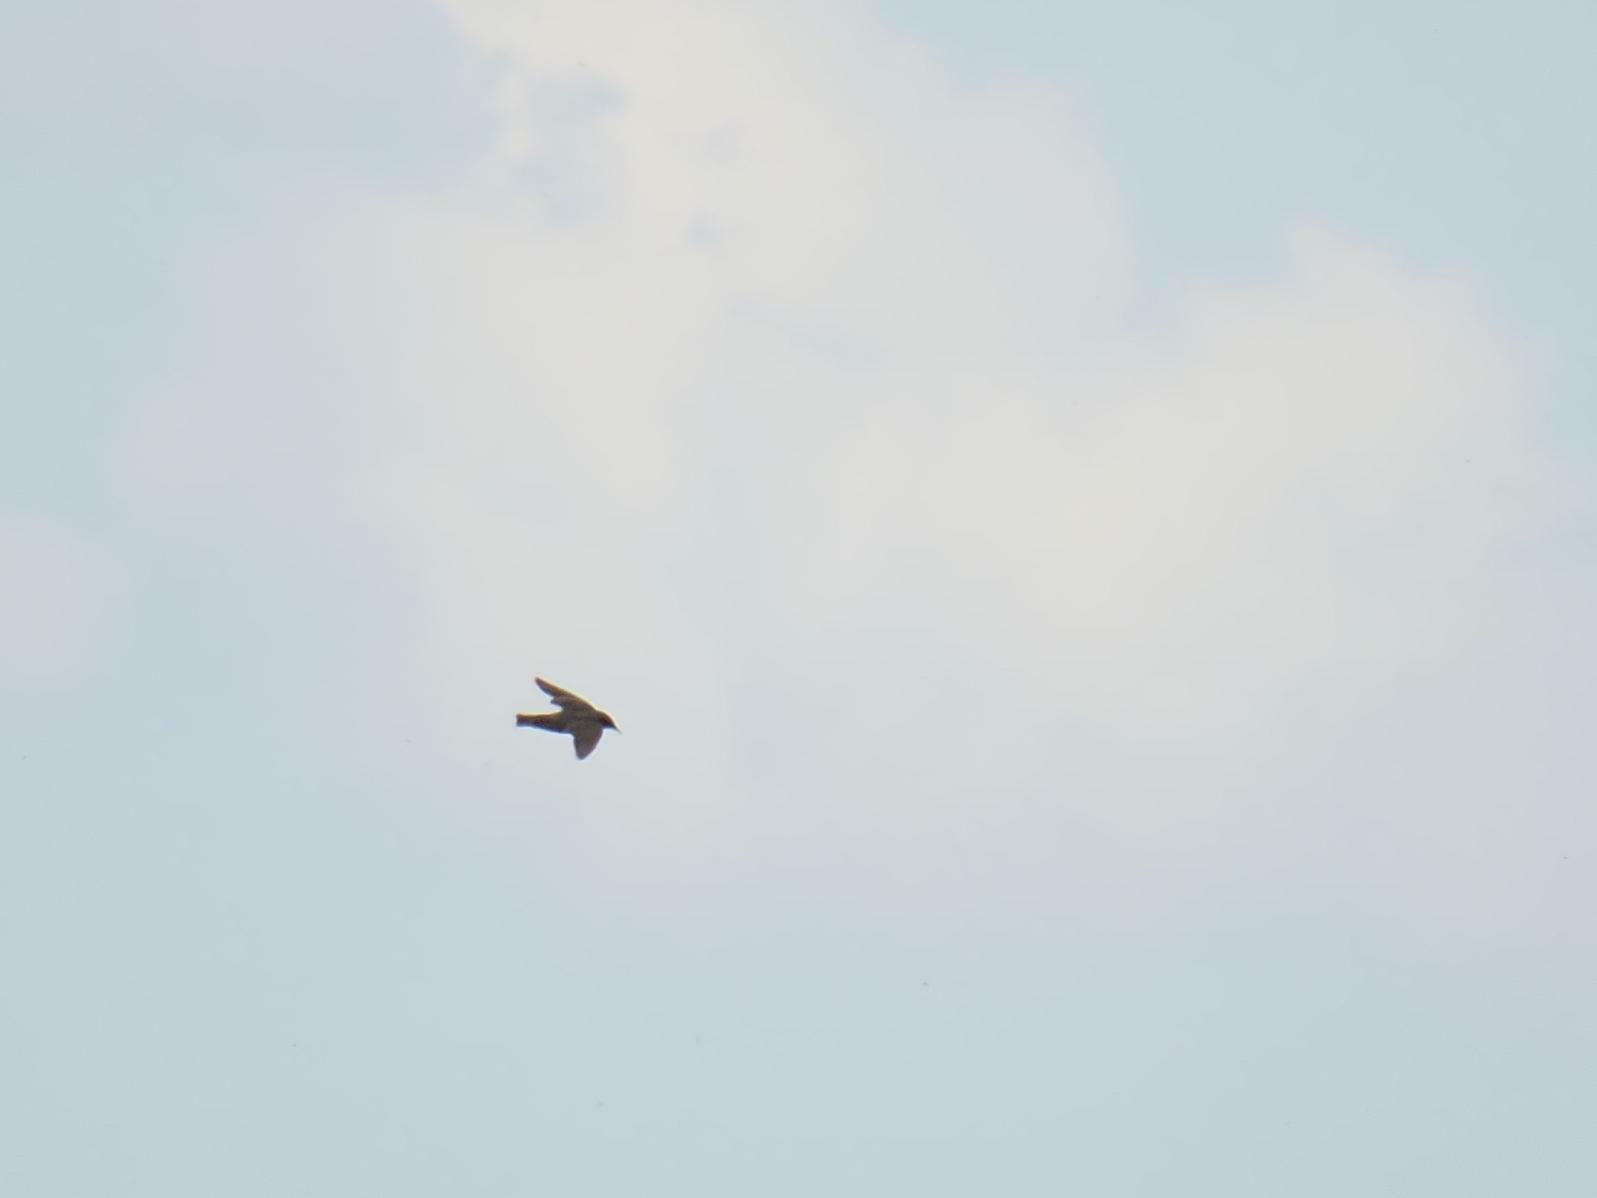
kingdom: Animalia
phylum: Chordata
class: Aves
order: Passeriformes
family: Sturnidae
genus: Sturnus
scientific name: Sturnus vulgaris
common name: Common starling
